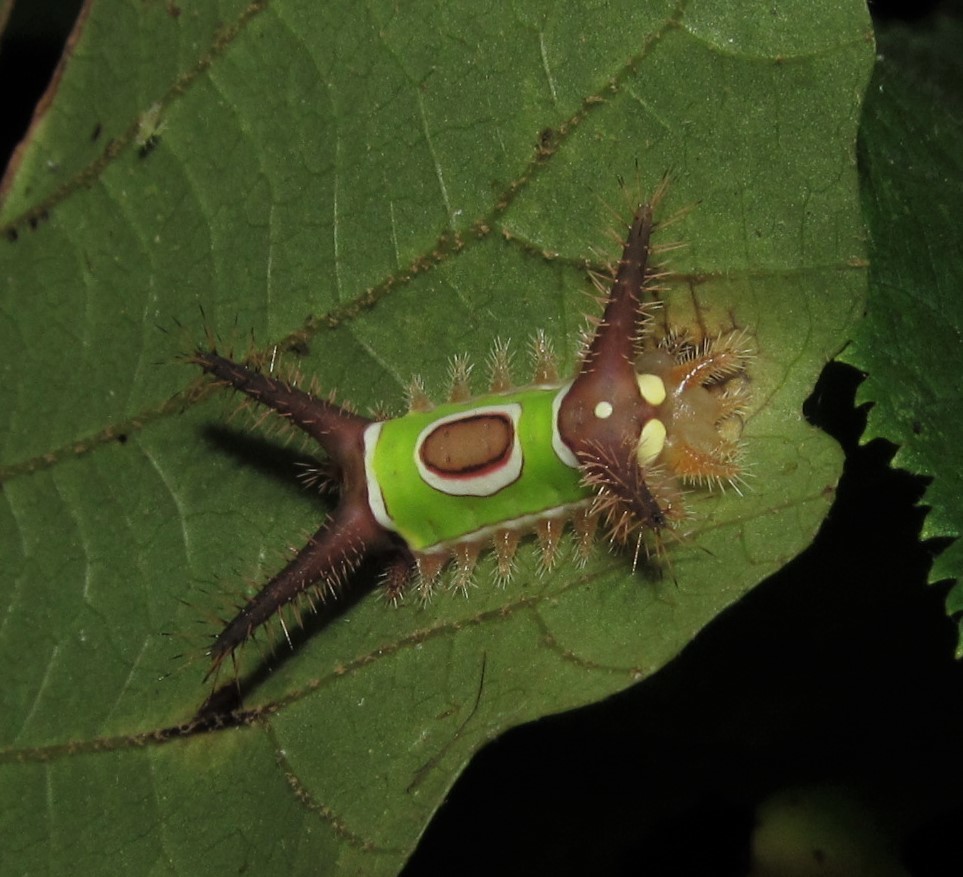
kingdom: Animalia
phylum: Arthropoda
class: Insecta
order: Lepidoptera
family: Limacodidae
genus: Acharia
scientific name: Acharia stimulea
